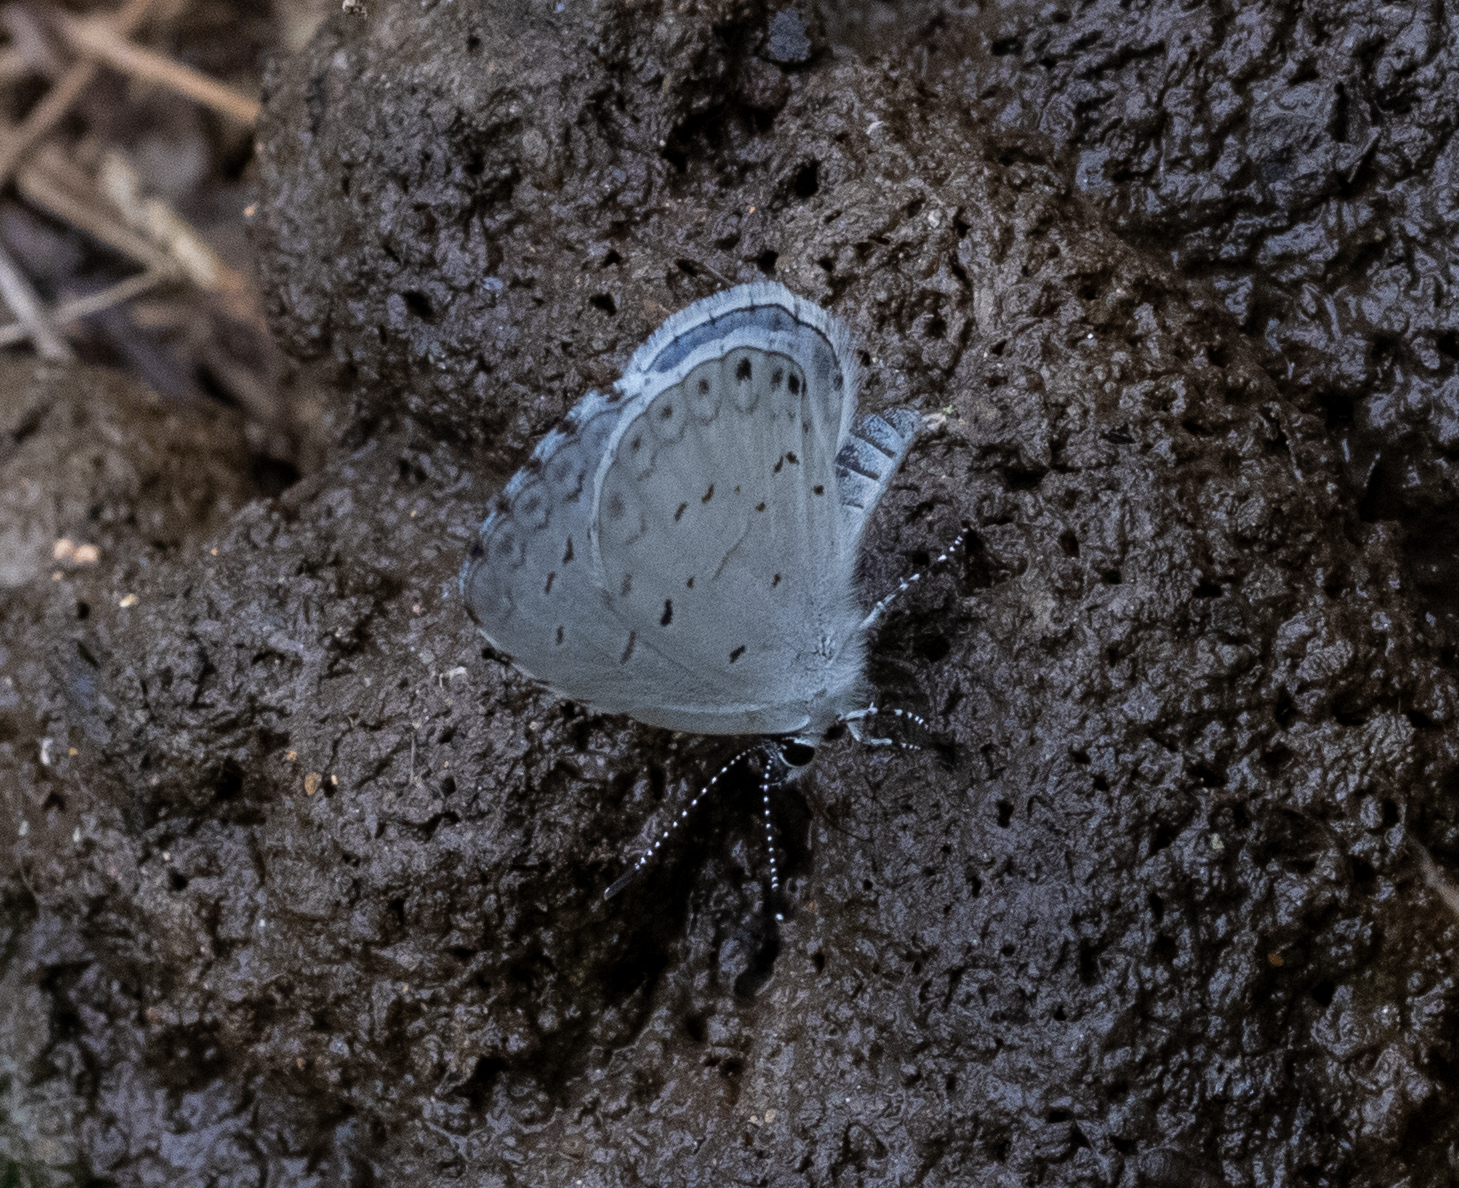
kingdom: Animalia
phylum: Arthropoda
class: Insecta
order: Lepidoptera
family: Lycaenidae
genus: Cyaniris
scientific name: Cyaniris neglecta
